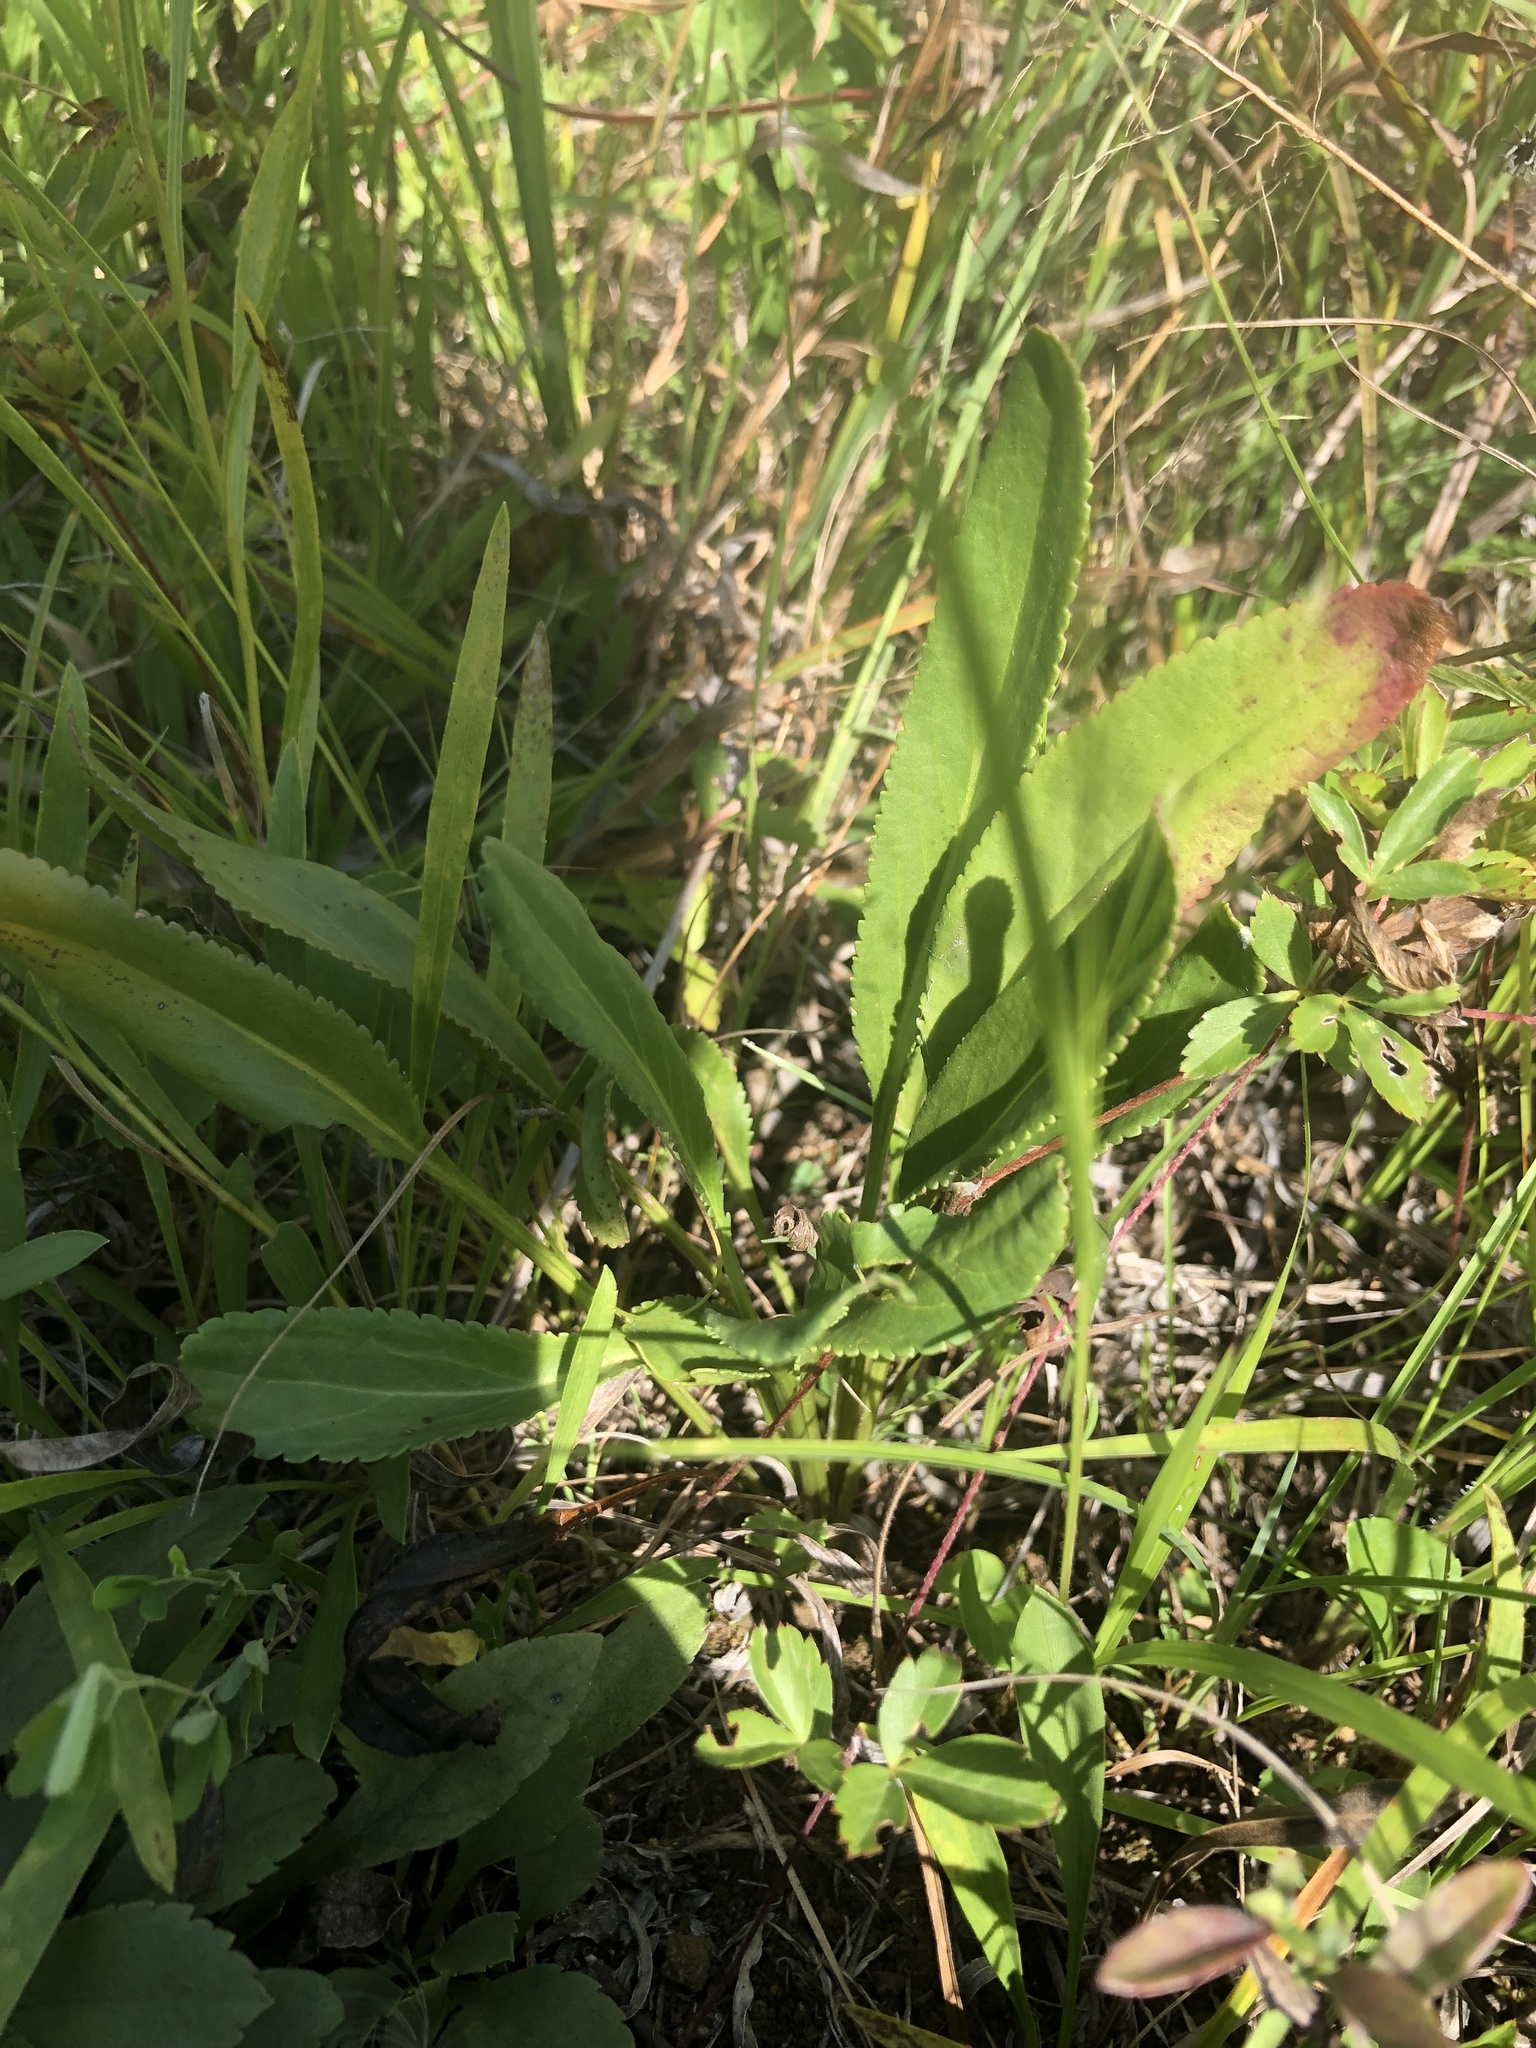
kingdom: Plantae
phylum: Tracheophyta
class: Magnoliopsida
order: Asterales
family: Asteraceae
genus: Packera
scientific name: Packera anonyma
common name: Small ragwort
